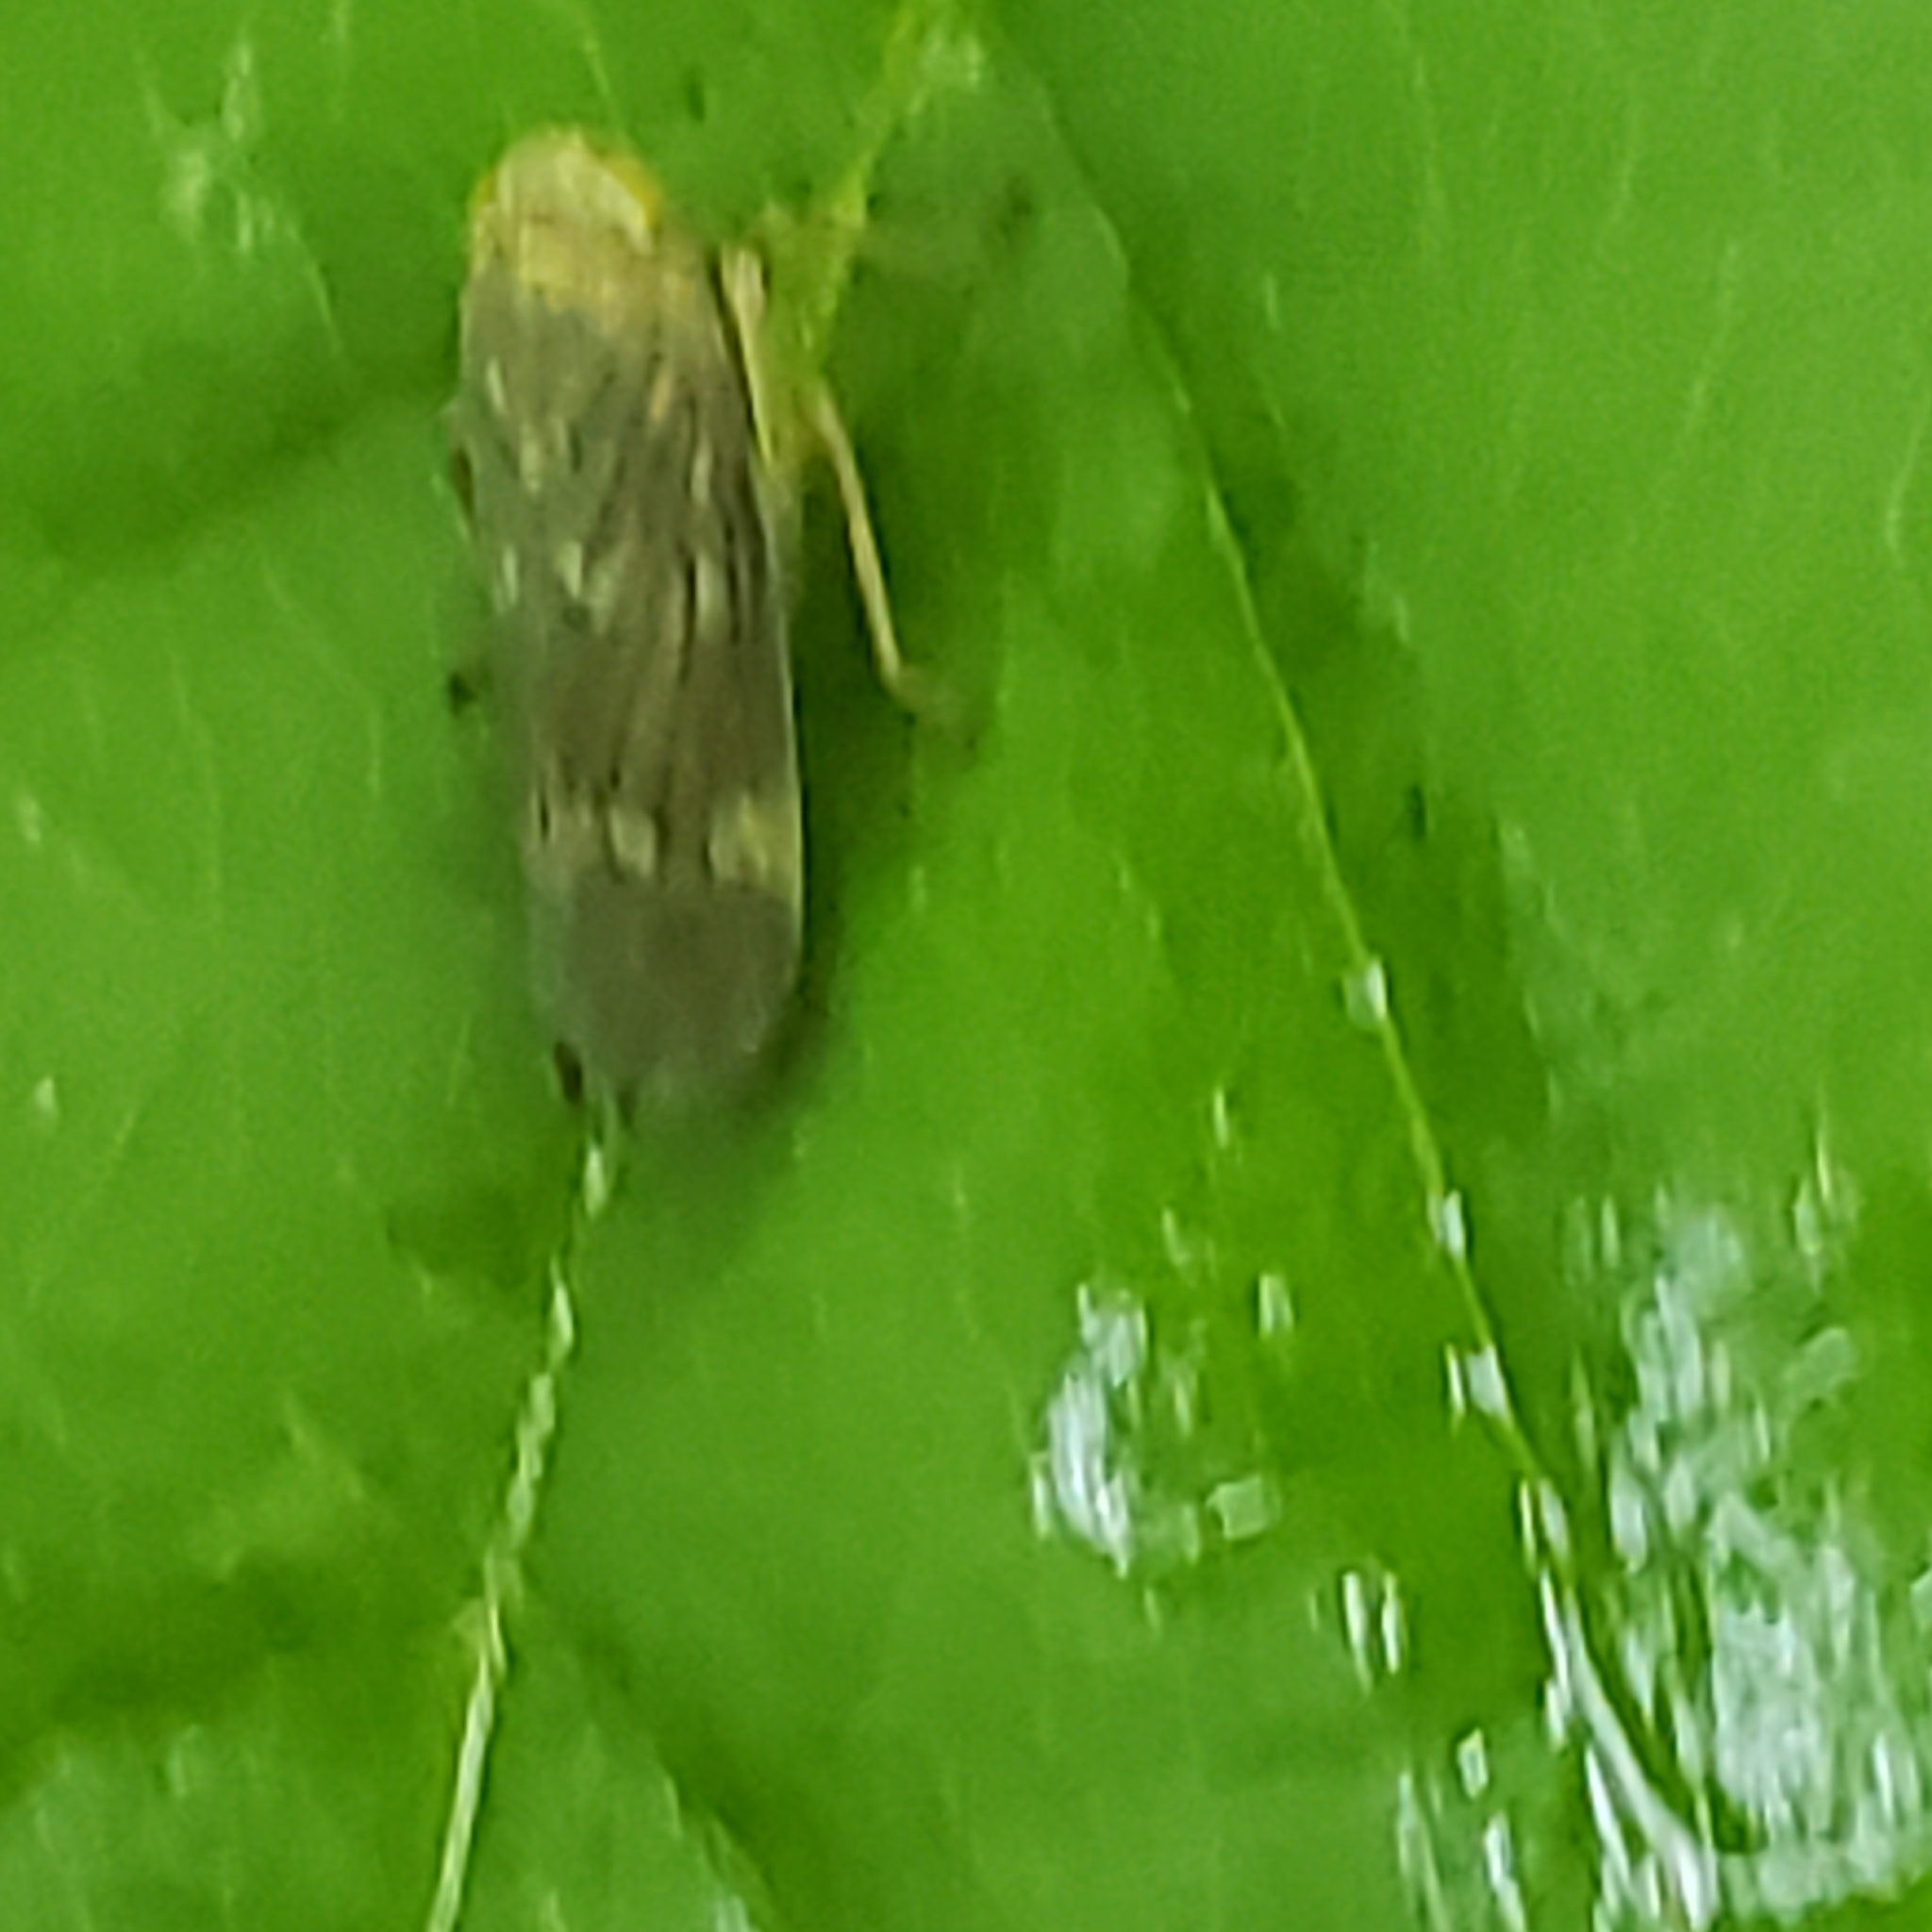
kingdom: Animalia
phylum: Arthropoda
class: Insecta
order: Hemiptera
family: Cicadellidae
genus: Jikradia
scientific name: Jikradia olitoria
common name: Coppery leafhopper
